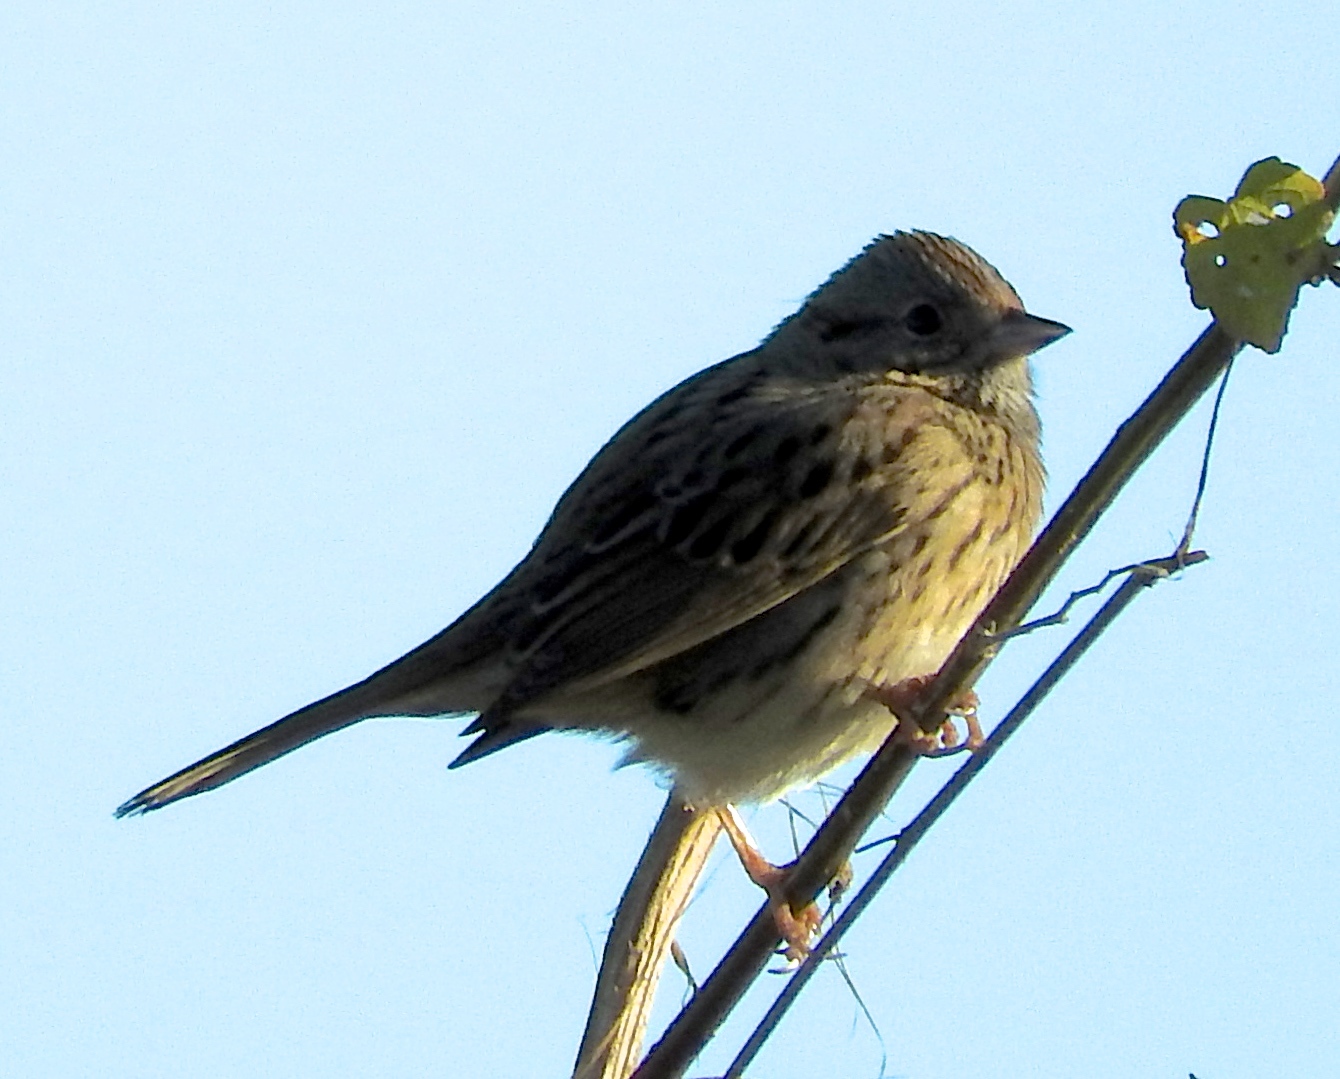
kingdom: Animalia
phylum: Chordata
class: Aves
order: Passeriformes
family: Passerellidae
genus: Melospiza
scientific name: Melospiza lincolnii
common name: Lincoln's sparrow
